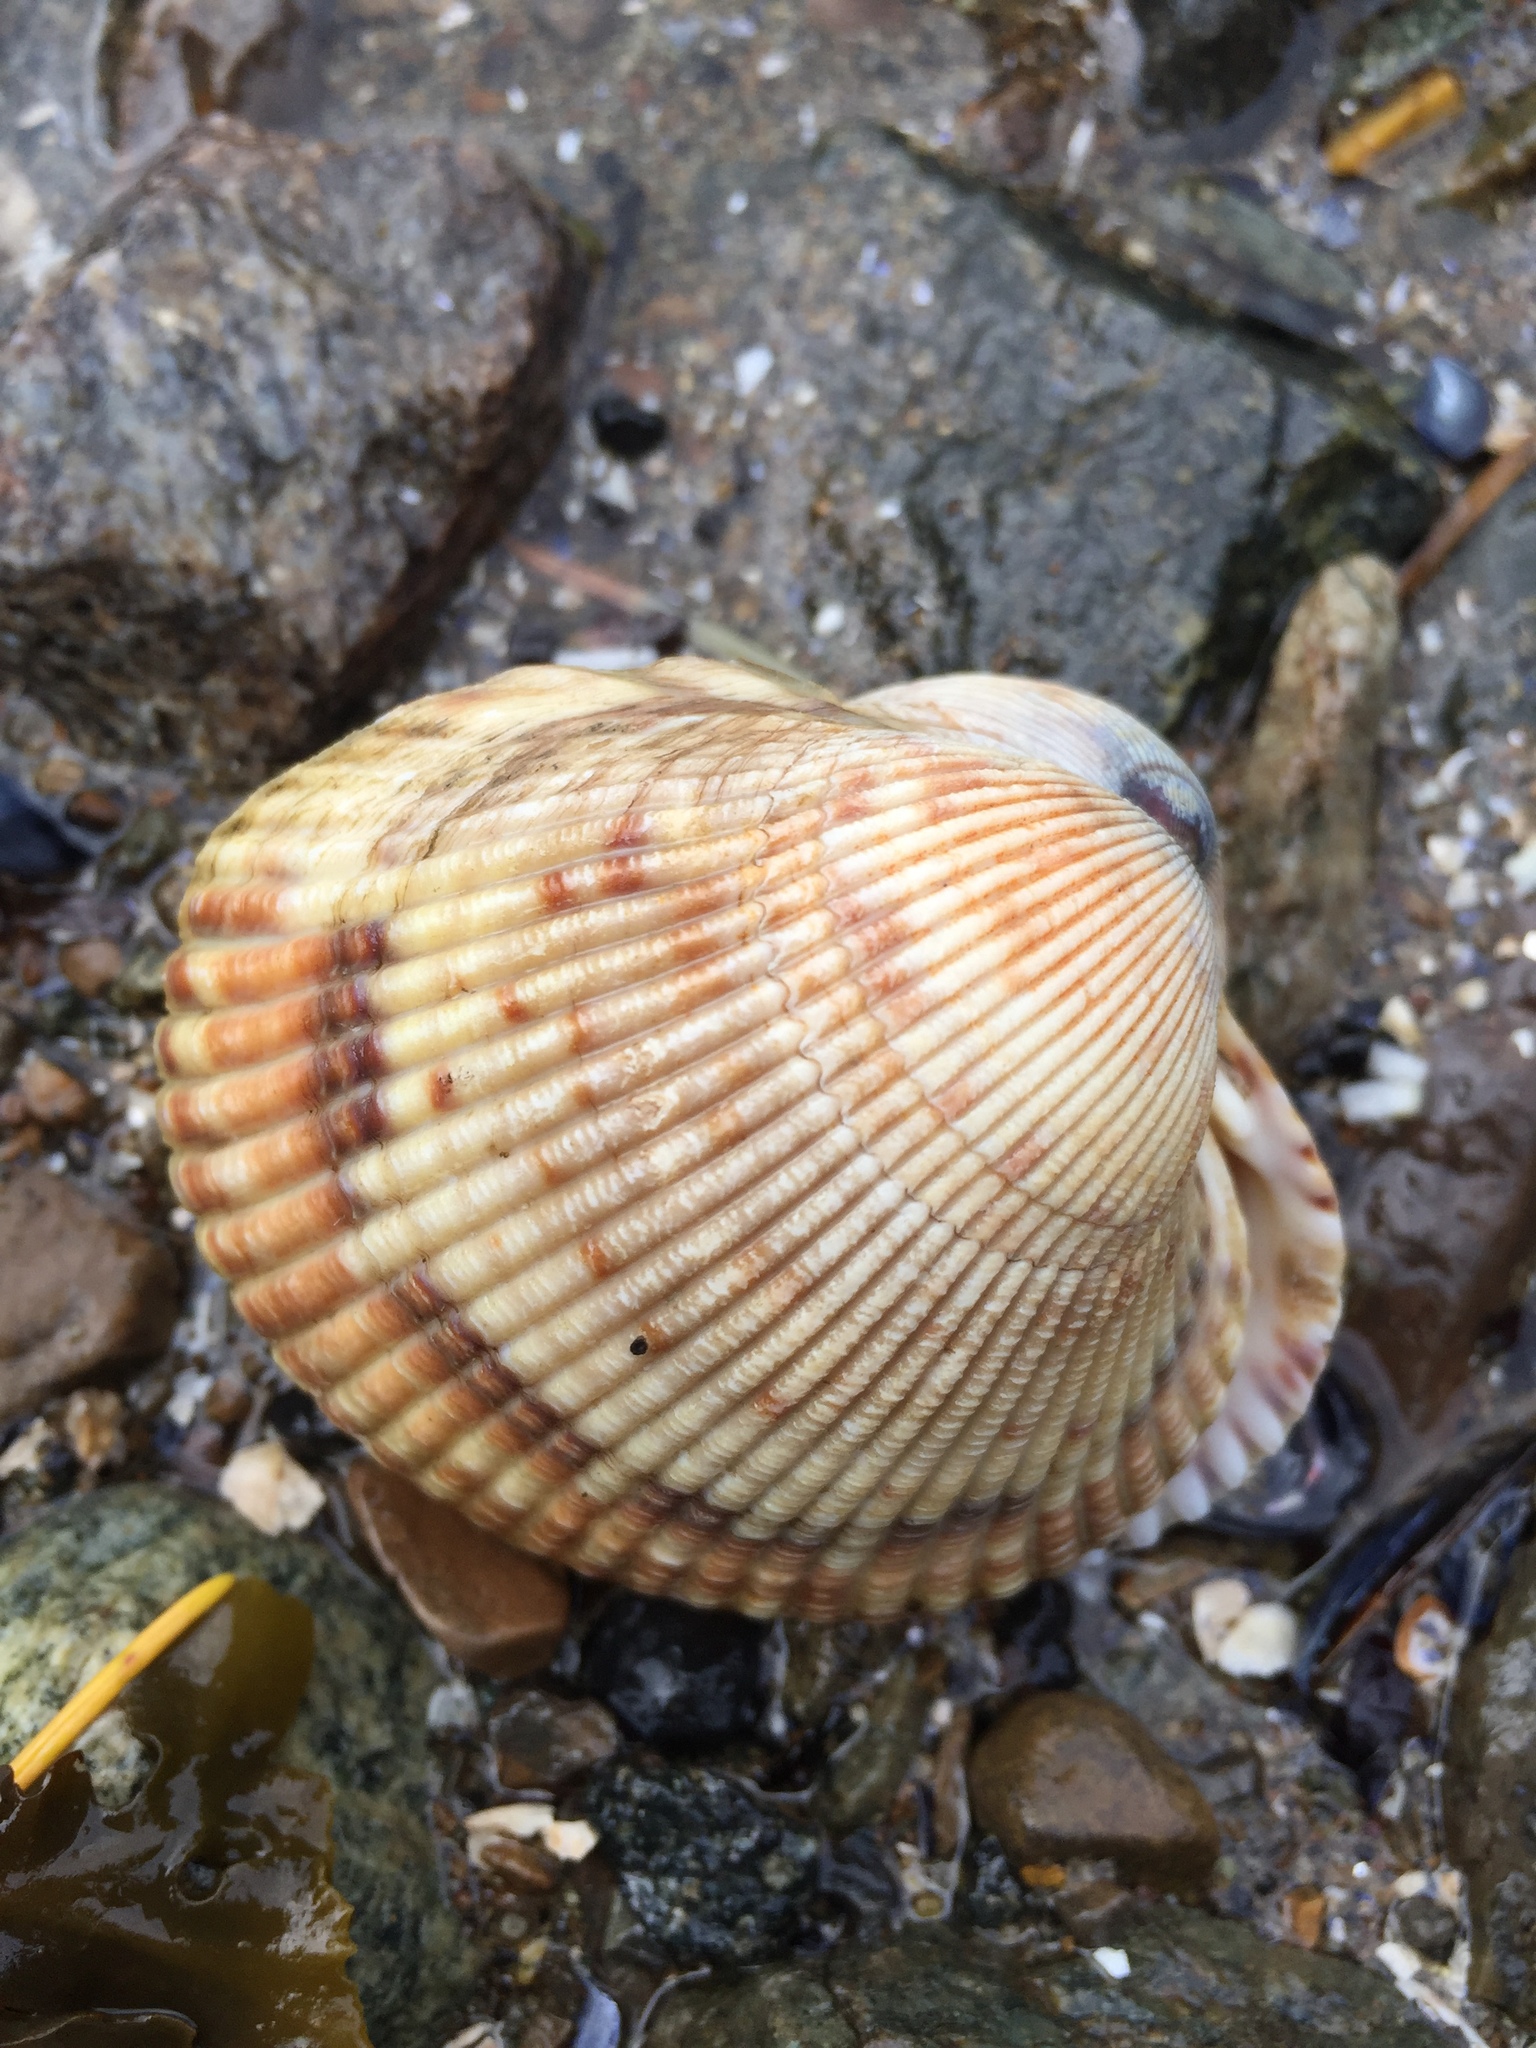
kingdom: Animalia
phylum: Mollusca
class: Bivalvia
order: Cardiida
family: Cardiidae
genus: Clinocardium
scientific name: Clinocardium nuttallii
